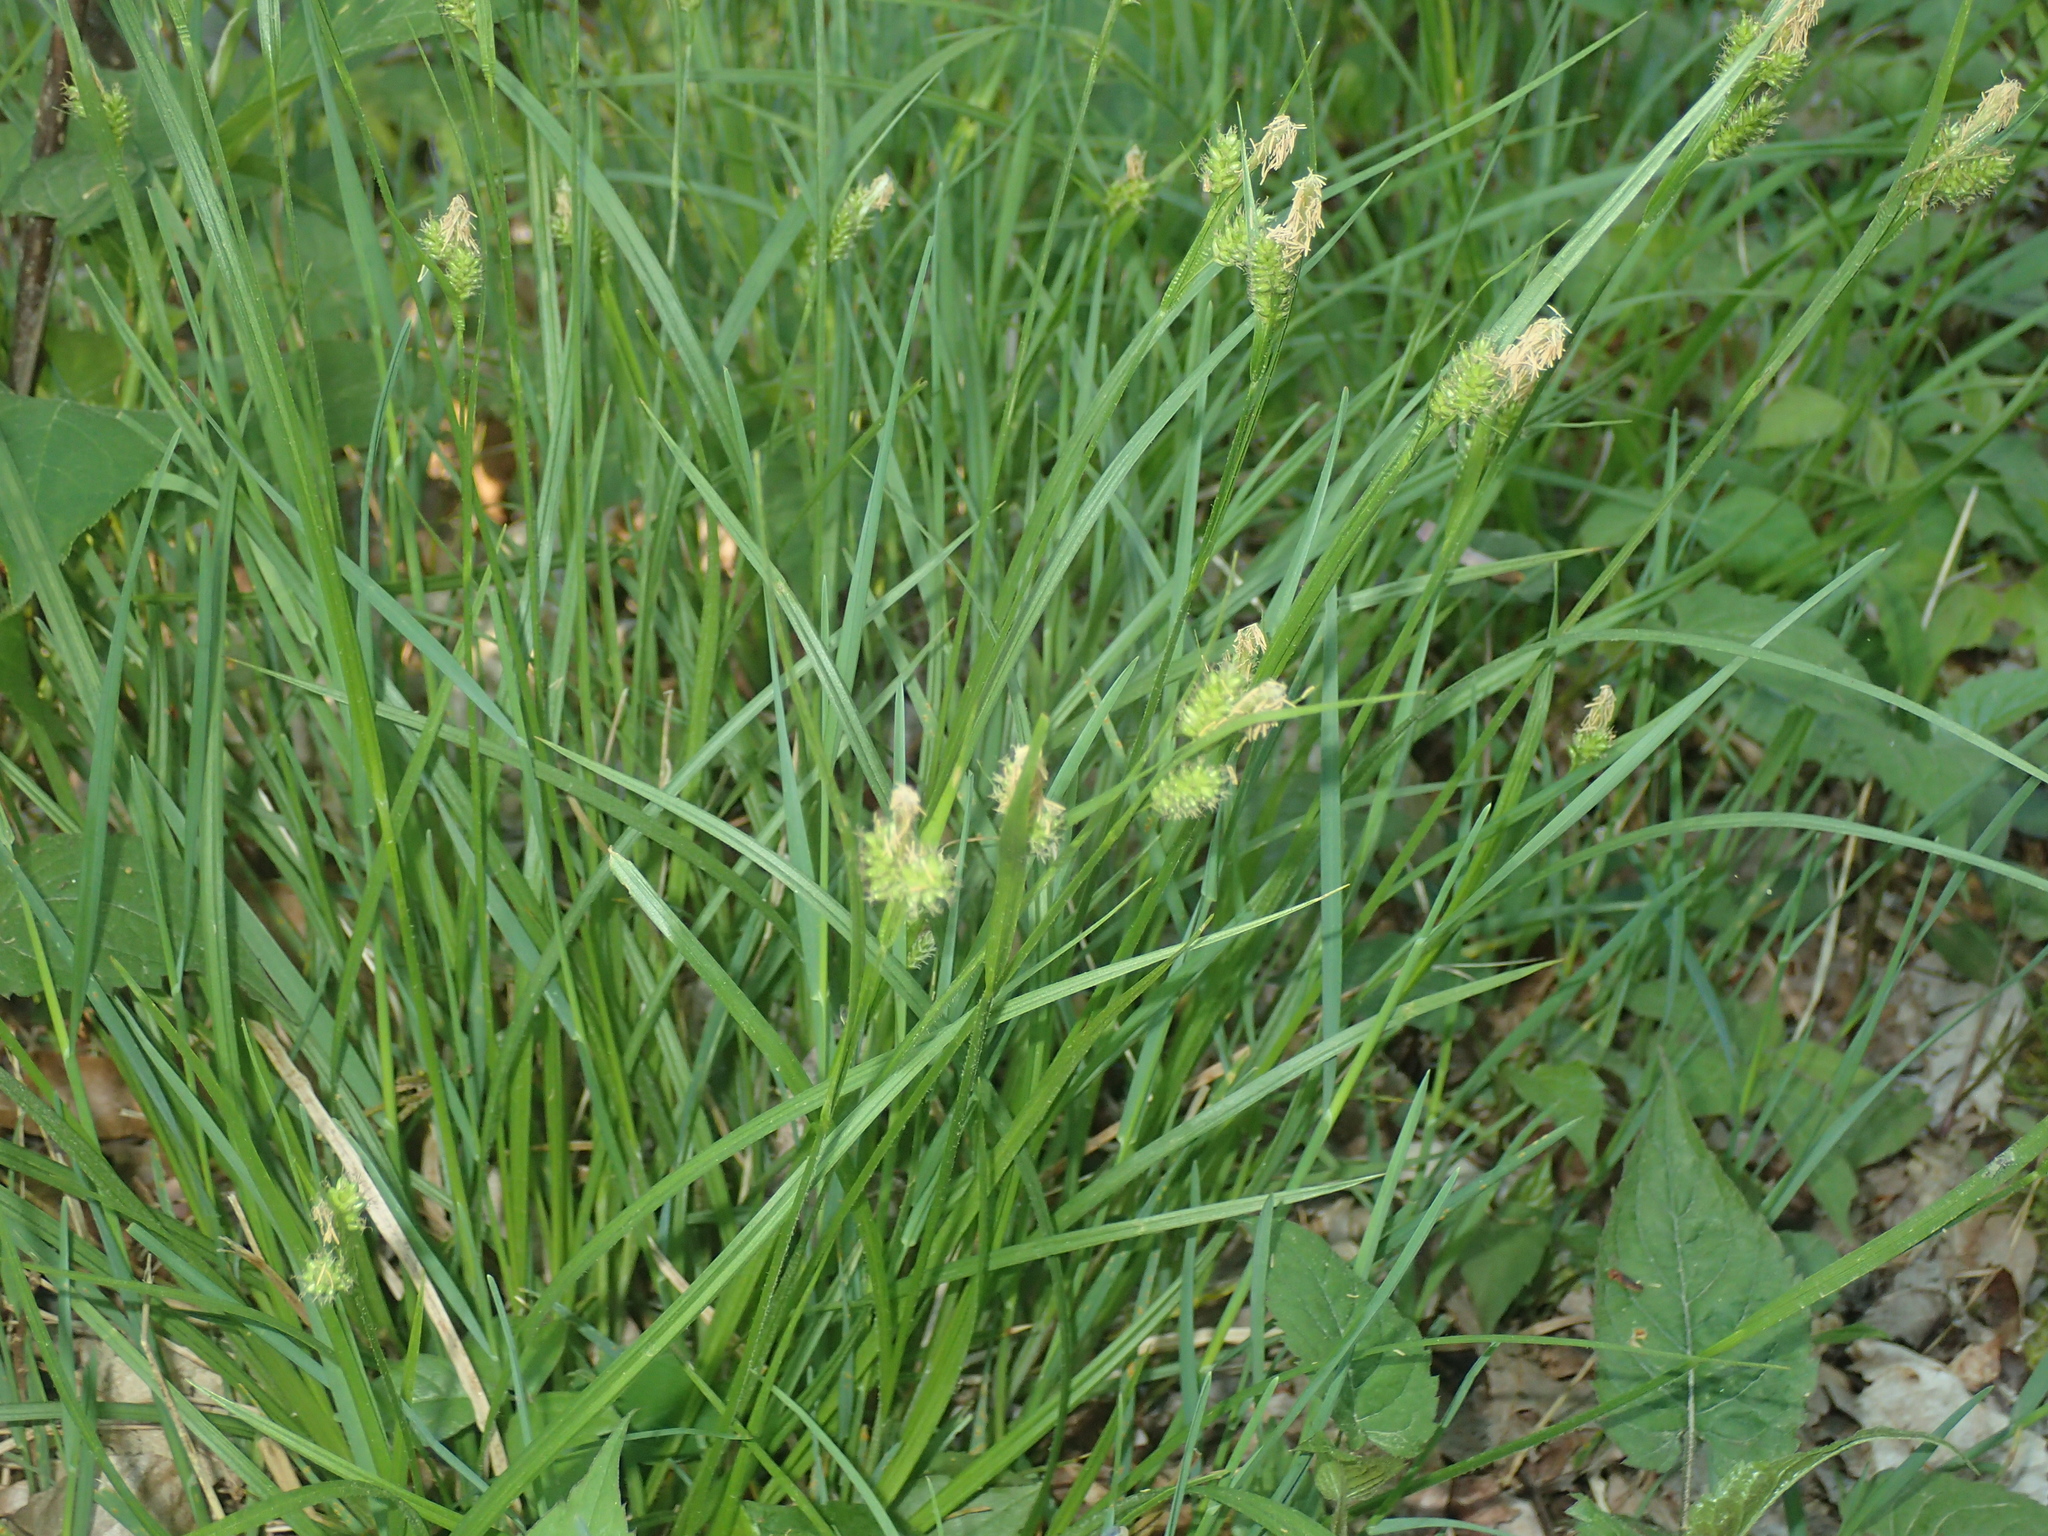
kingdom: Plantae
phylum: Tracheophyta
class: Liliopsida
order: Poales
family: Cyperaceae
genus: Carex
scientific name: Carex pallescens
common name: Pale sedge
